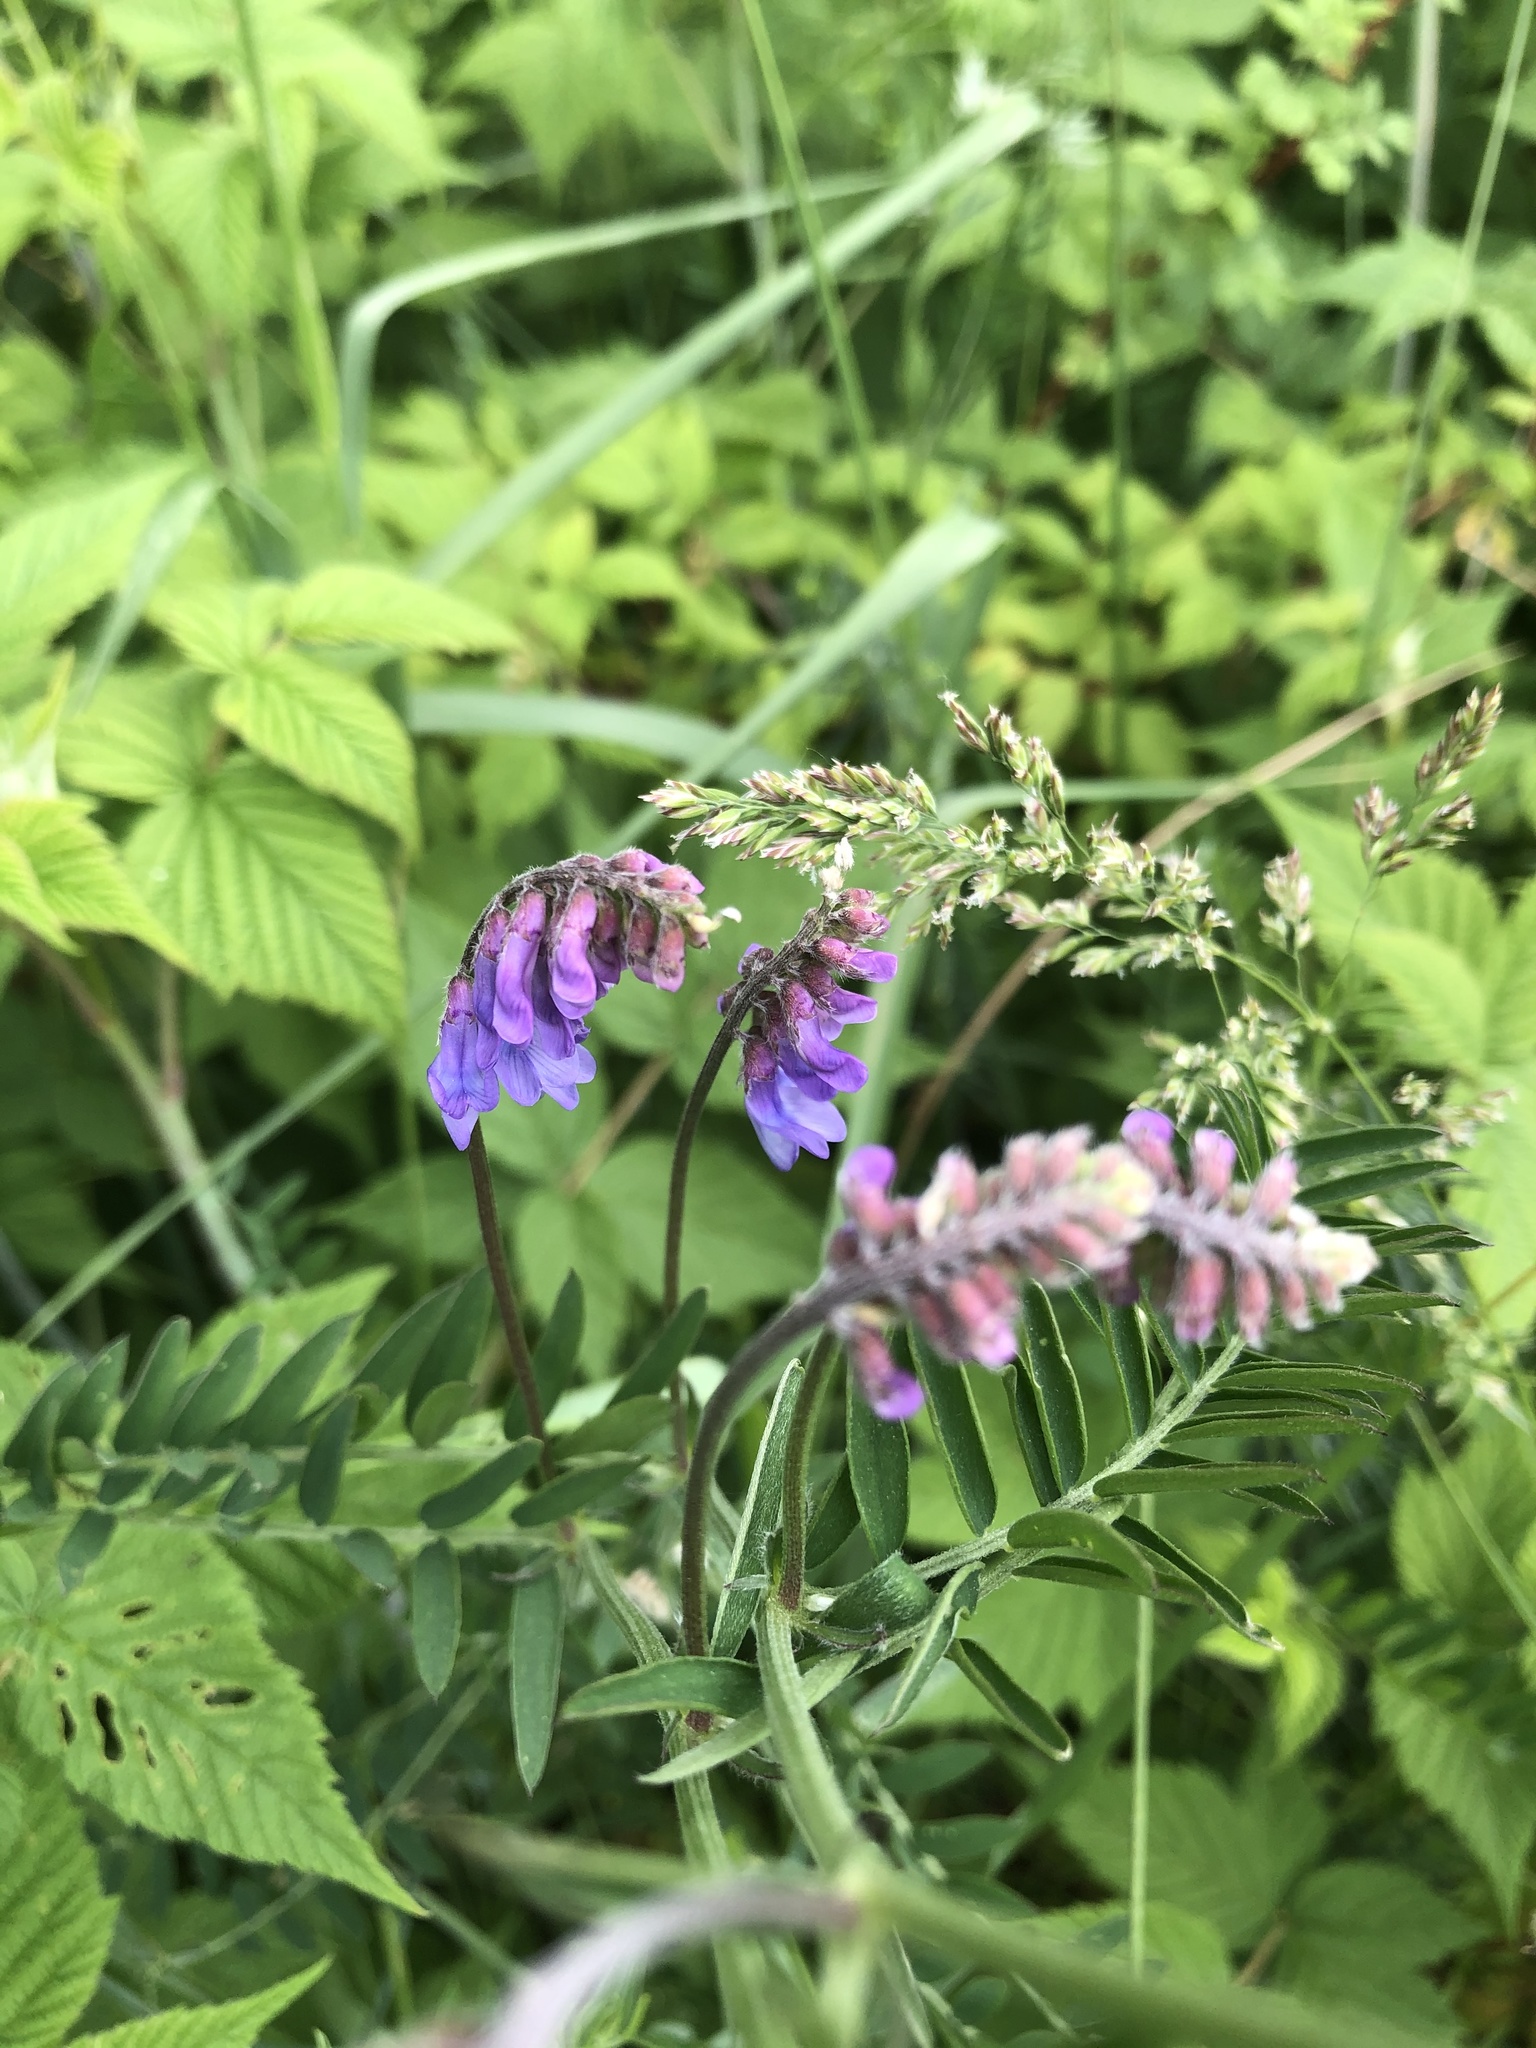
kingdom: Plantae
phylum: Tracheophyta
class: Magnoliopsida
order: Fabales
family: Fabaceae
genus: Vicia
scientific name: Vicia cracca
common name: Bird vetch
